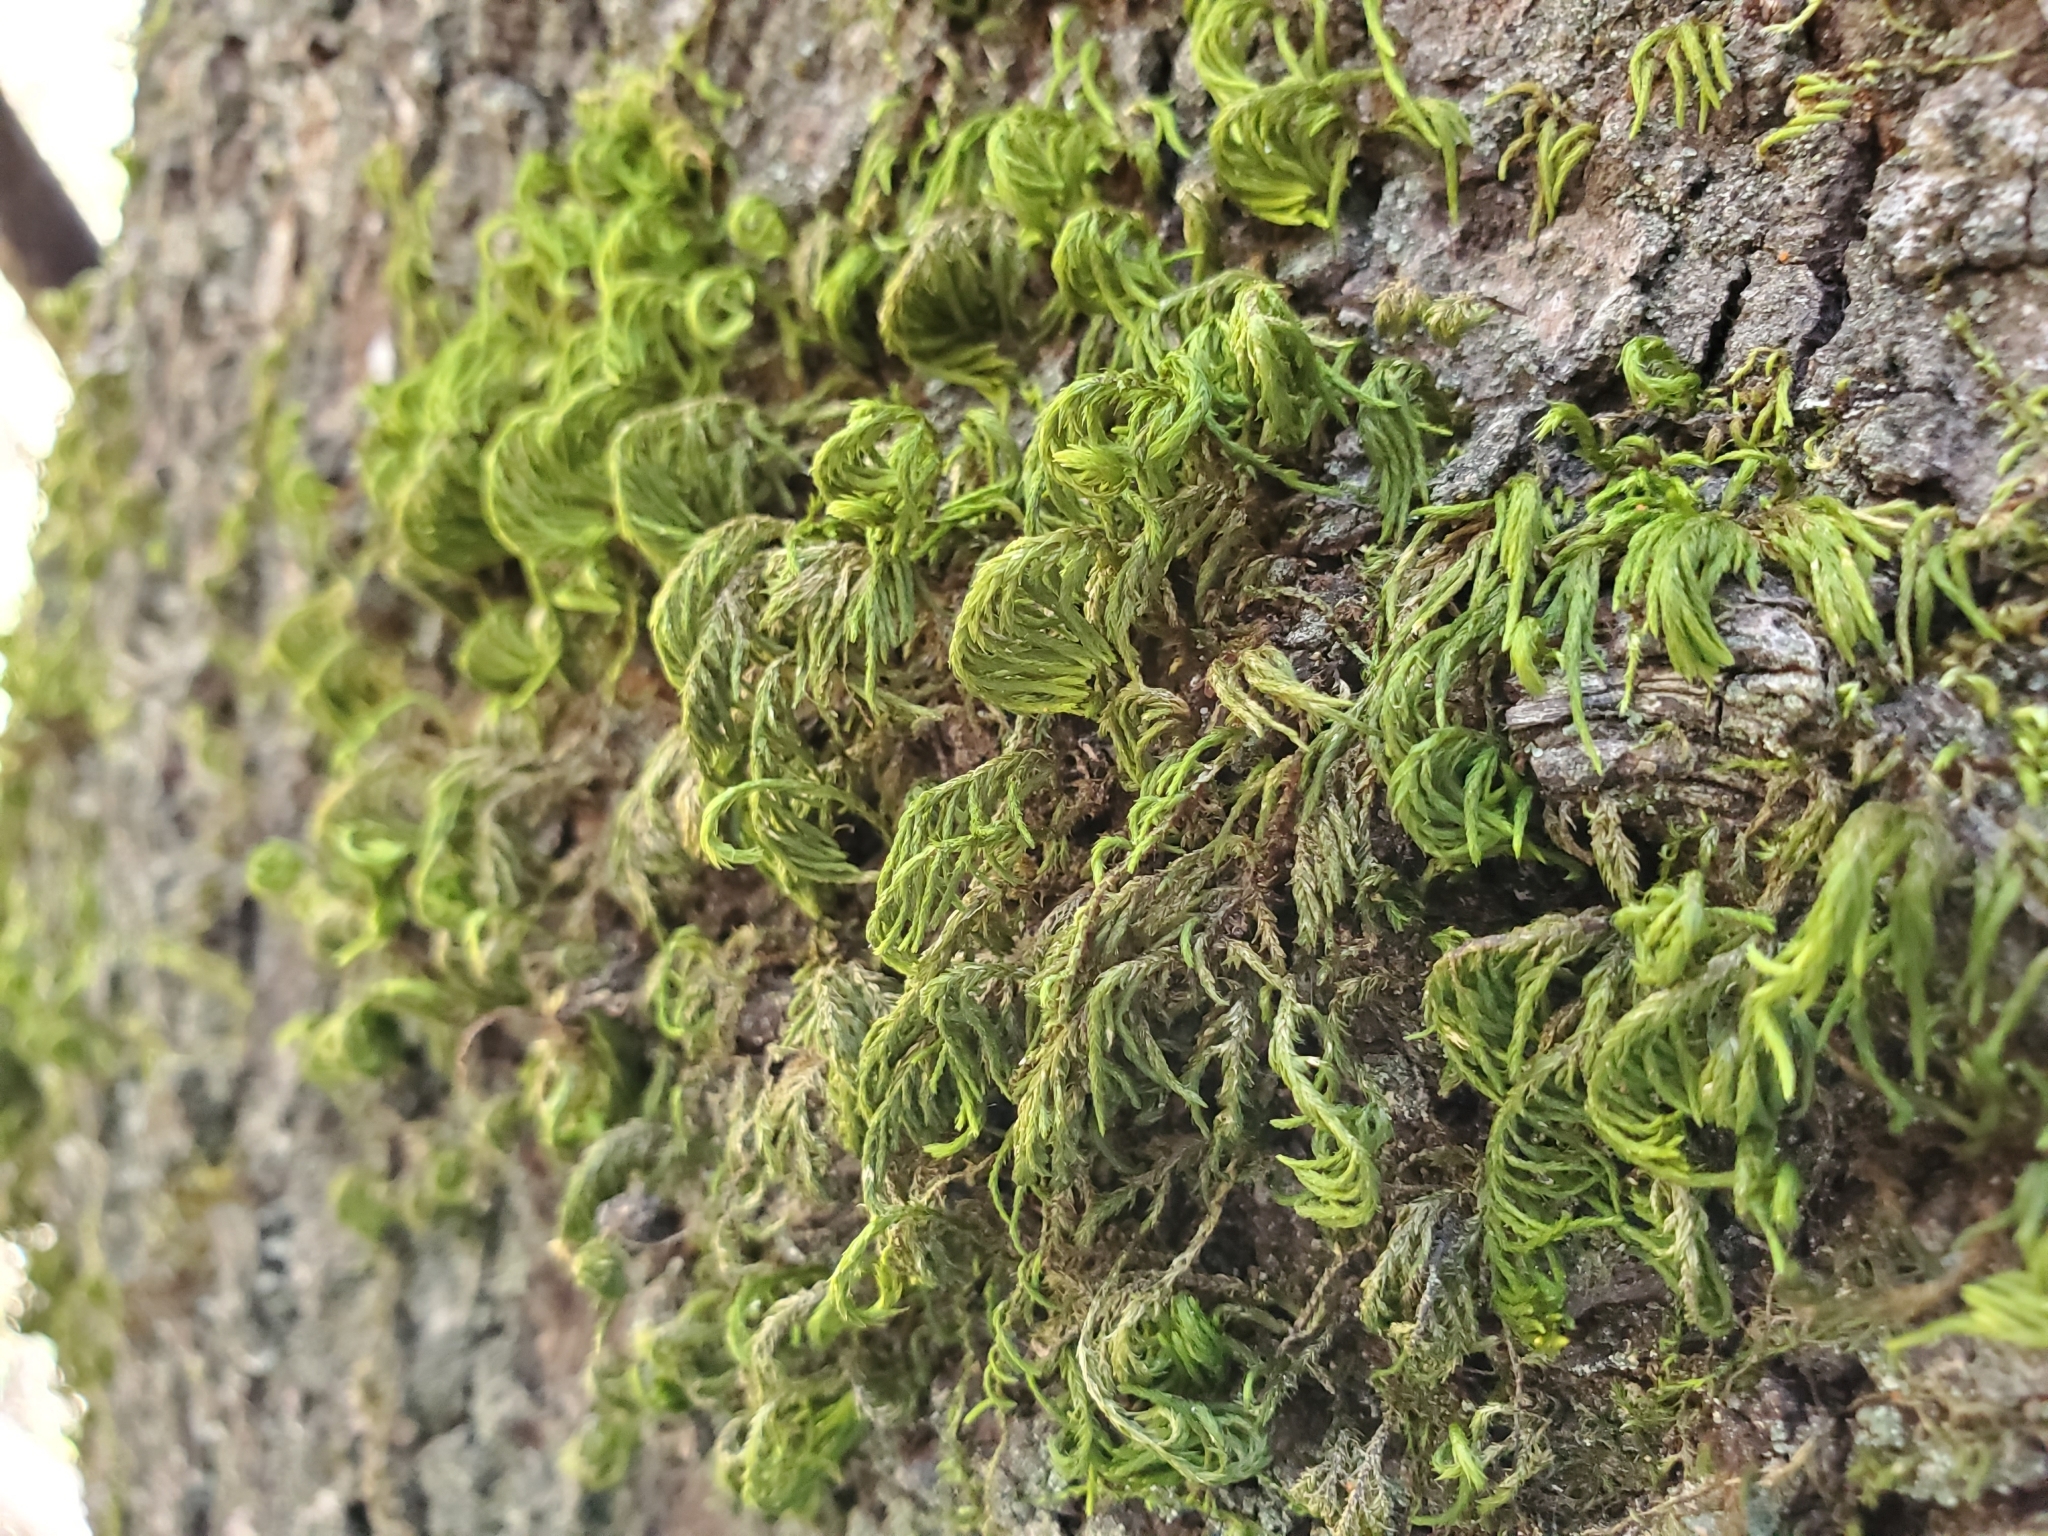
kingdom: Plantae
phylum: Bryophyta
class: Bryopsida
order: Hypnales
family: Cryphaeaceae
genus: Dendroalsia
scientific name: Dendroalsia abietina
